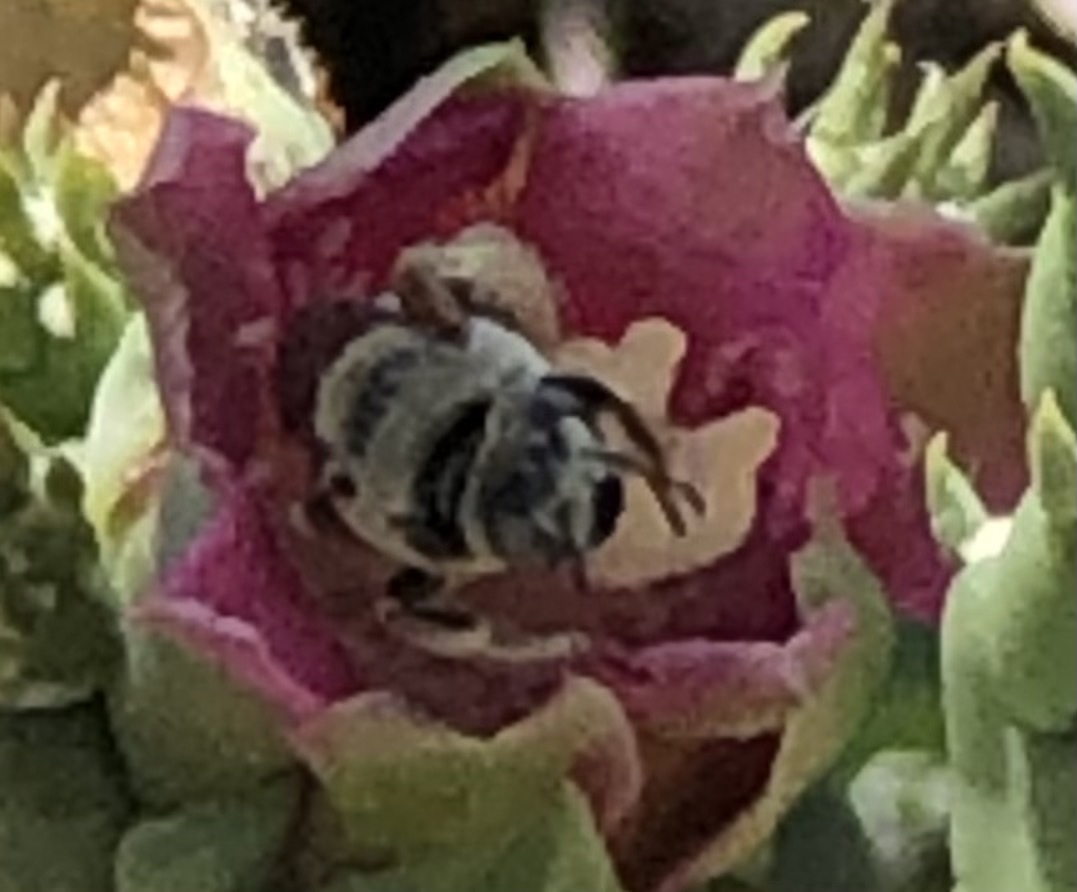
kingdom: Animalia
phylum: Arthropoda
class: Insecta
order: Hymenoptera
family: Apidae
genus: Diadasia
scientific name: Diadasia
